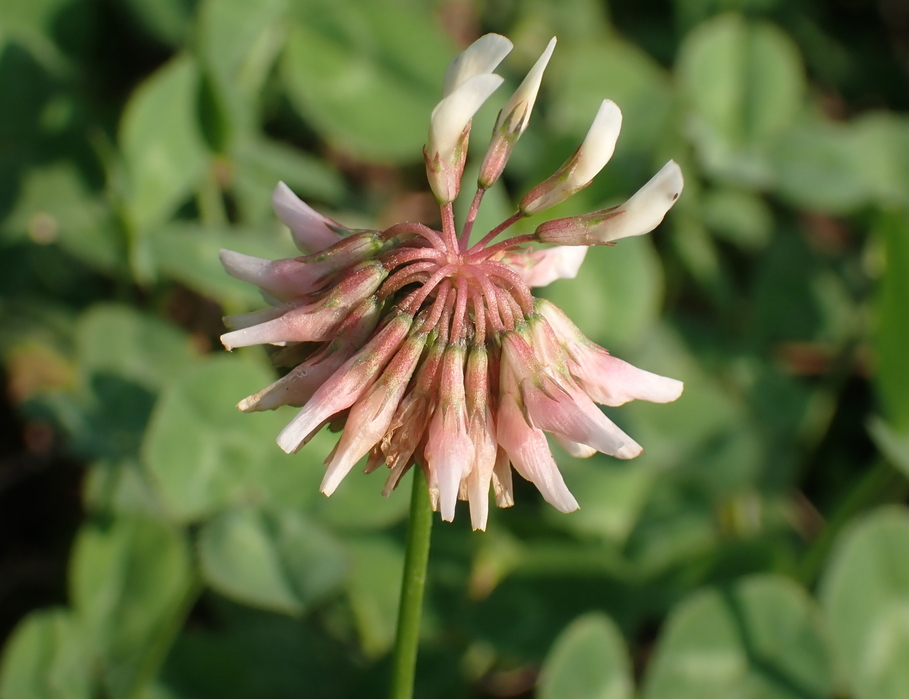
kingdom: Plantae
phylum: Tracheophyta
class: Magnoliopsida
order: Fabales
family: Fabaceae
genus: Trifolium
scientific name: Trifolium repens
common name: White clover
